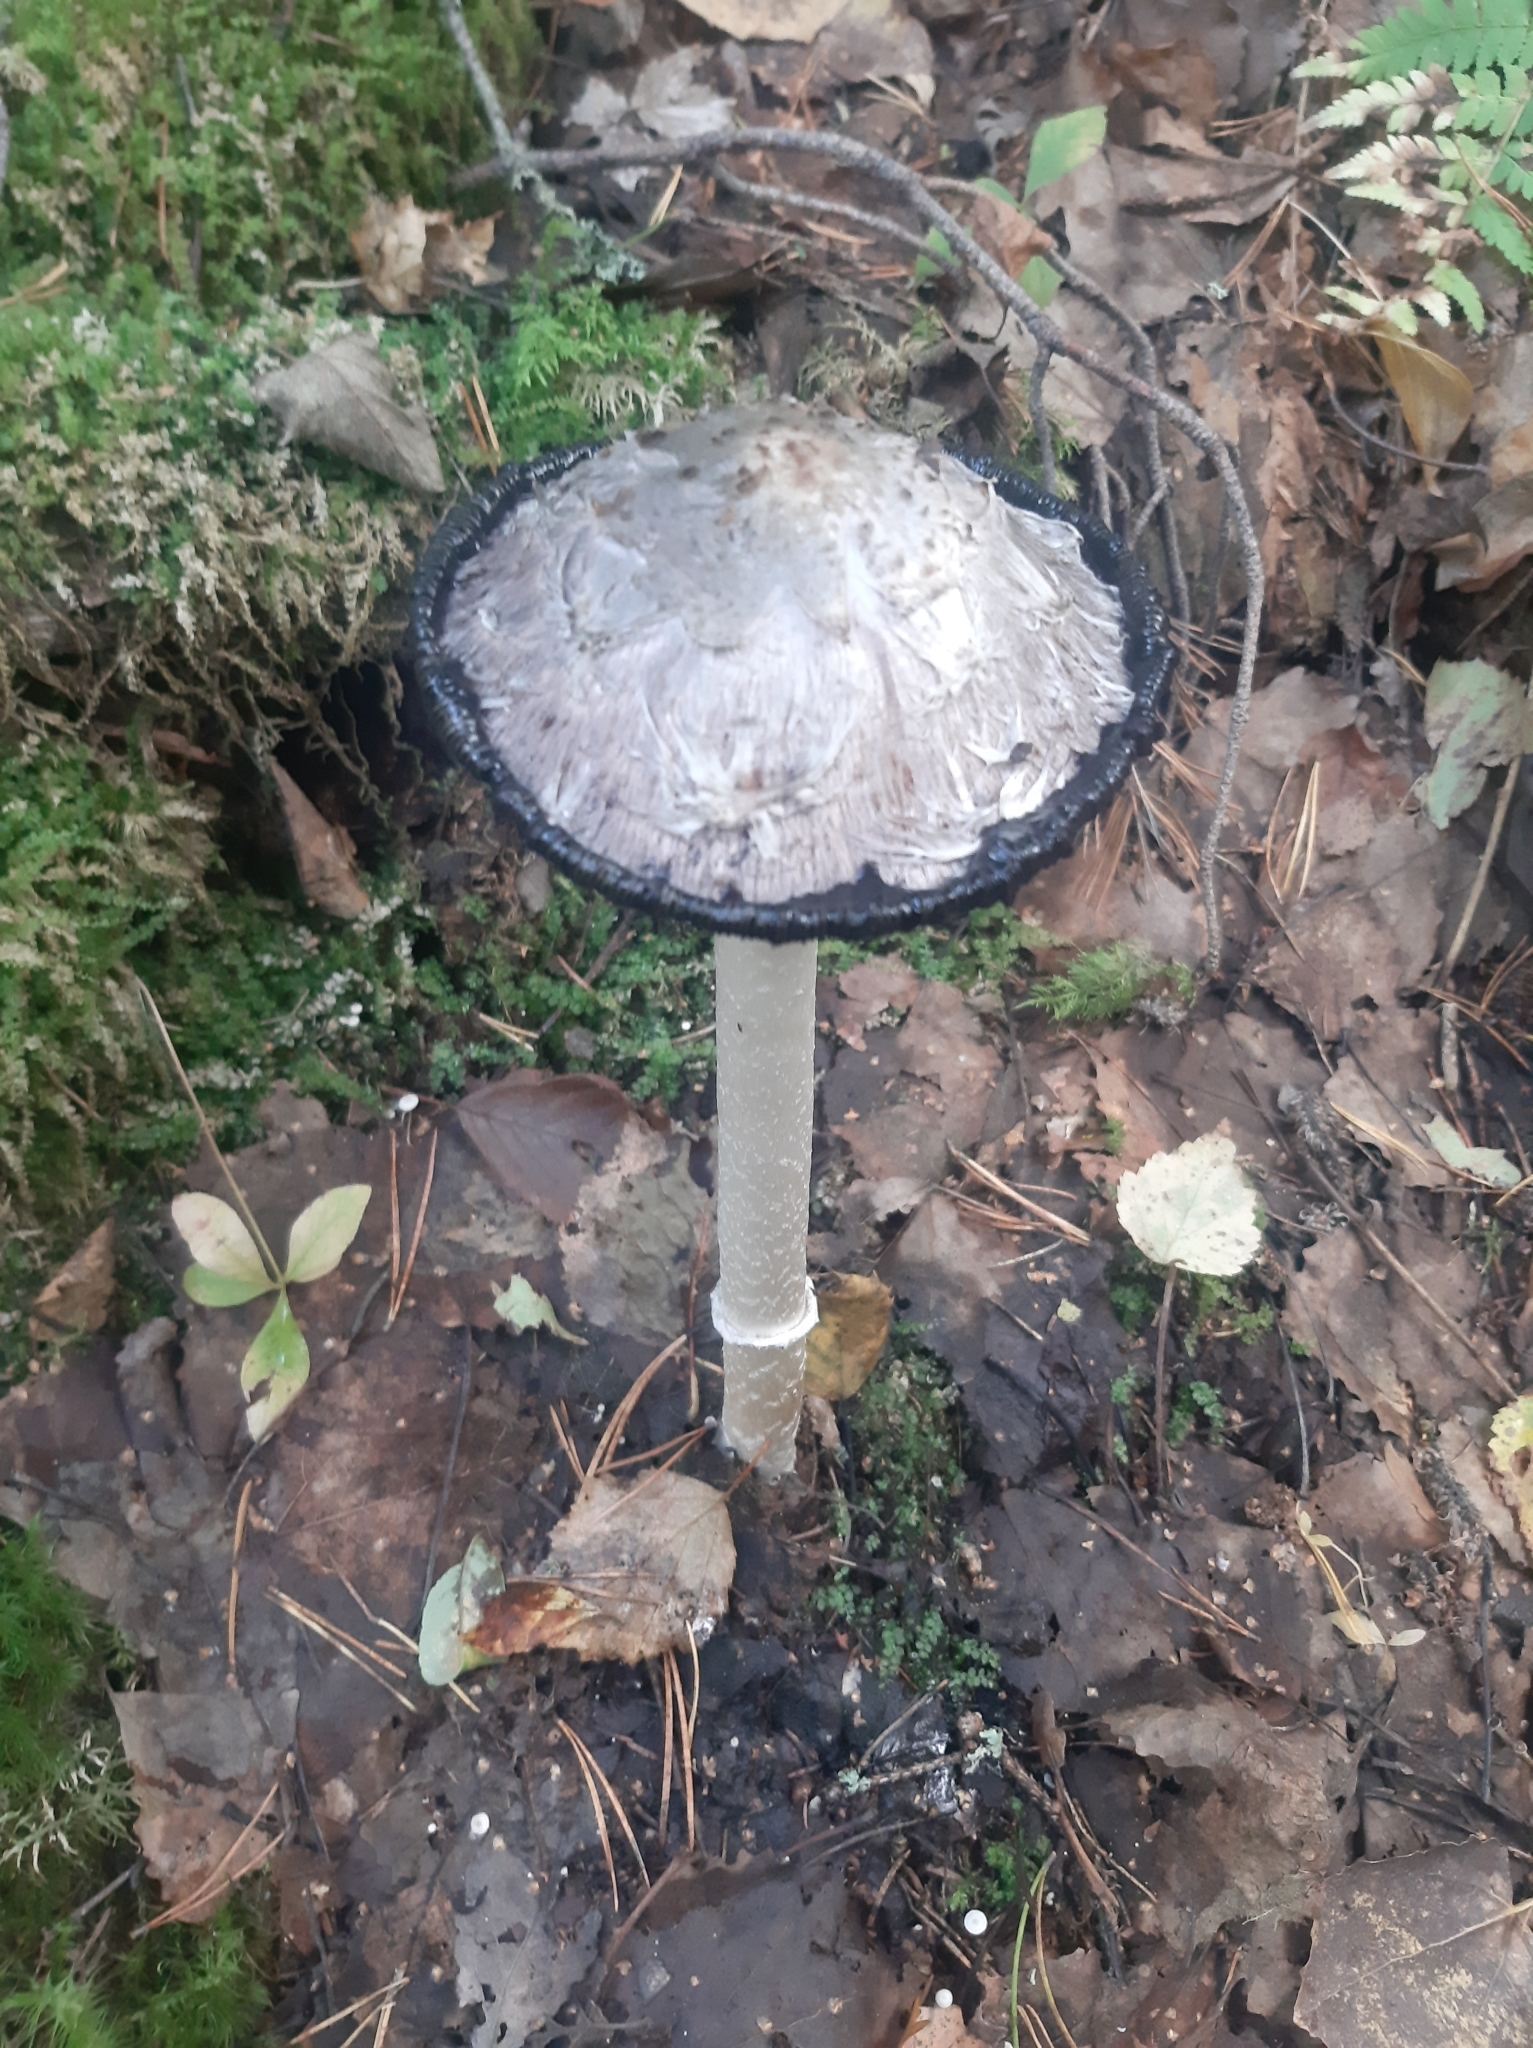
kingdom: Fungi
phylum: Basidiomycota
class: Agaricomycetes
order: Agaricales
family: Agaricaceae
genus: Coprinus
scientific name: Coprinus comatus
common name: Lawyer's wig
